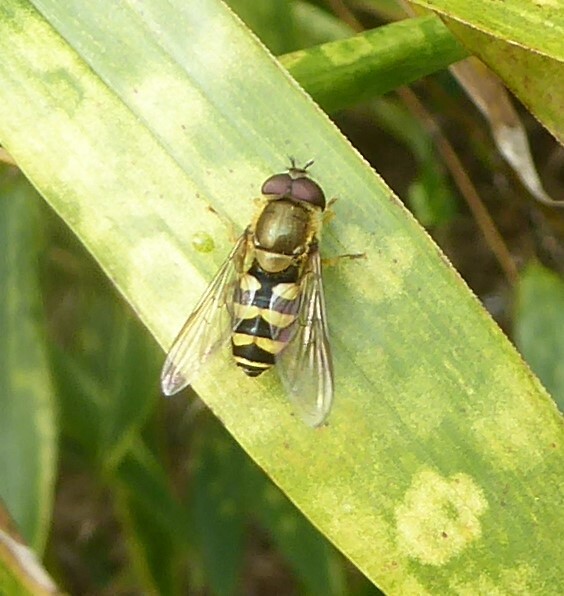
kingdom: Animalia
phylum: Arthropoda
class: Insecta
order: Diptera
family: Syrphidae
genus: Syrphus
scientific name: Syrphus
